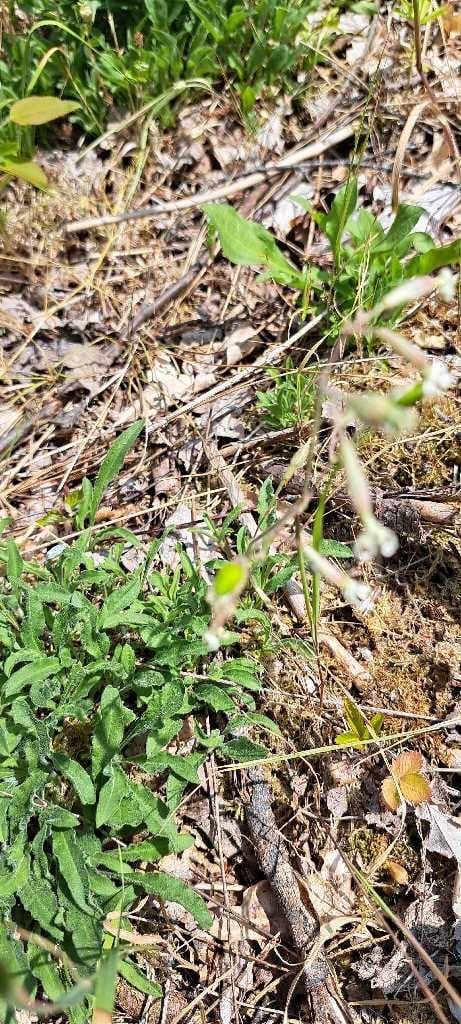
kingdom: Plantae
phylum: Tracheophyta
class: Magnoliopsida
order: Caryophyllales
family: Caryophyllaceae
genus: Silene
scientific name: Silene nutans
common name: Nottingham catchfly
